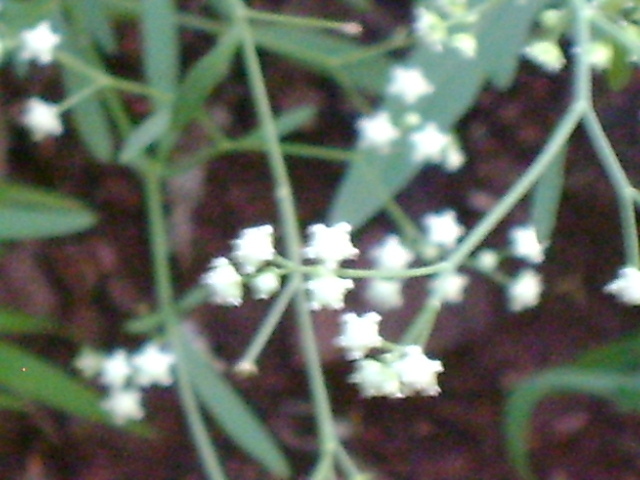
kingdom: Plantae
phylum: Tracheophyta
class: Magnoliopsida
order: Asterales
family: Asteraceae
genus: Parthenium
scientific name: Parthenium hysterophorus
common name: Santa maria feverfew
